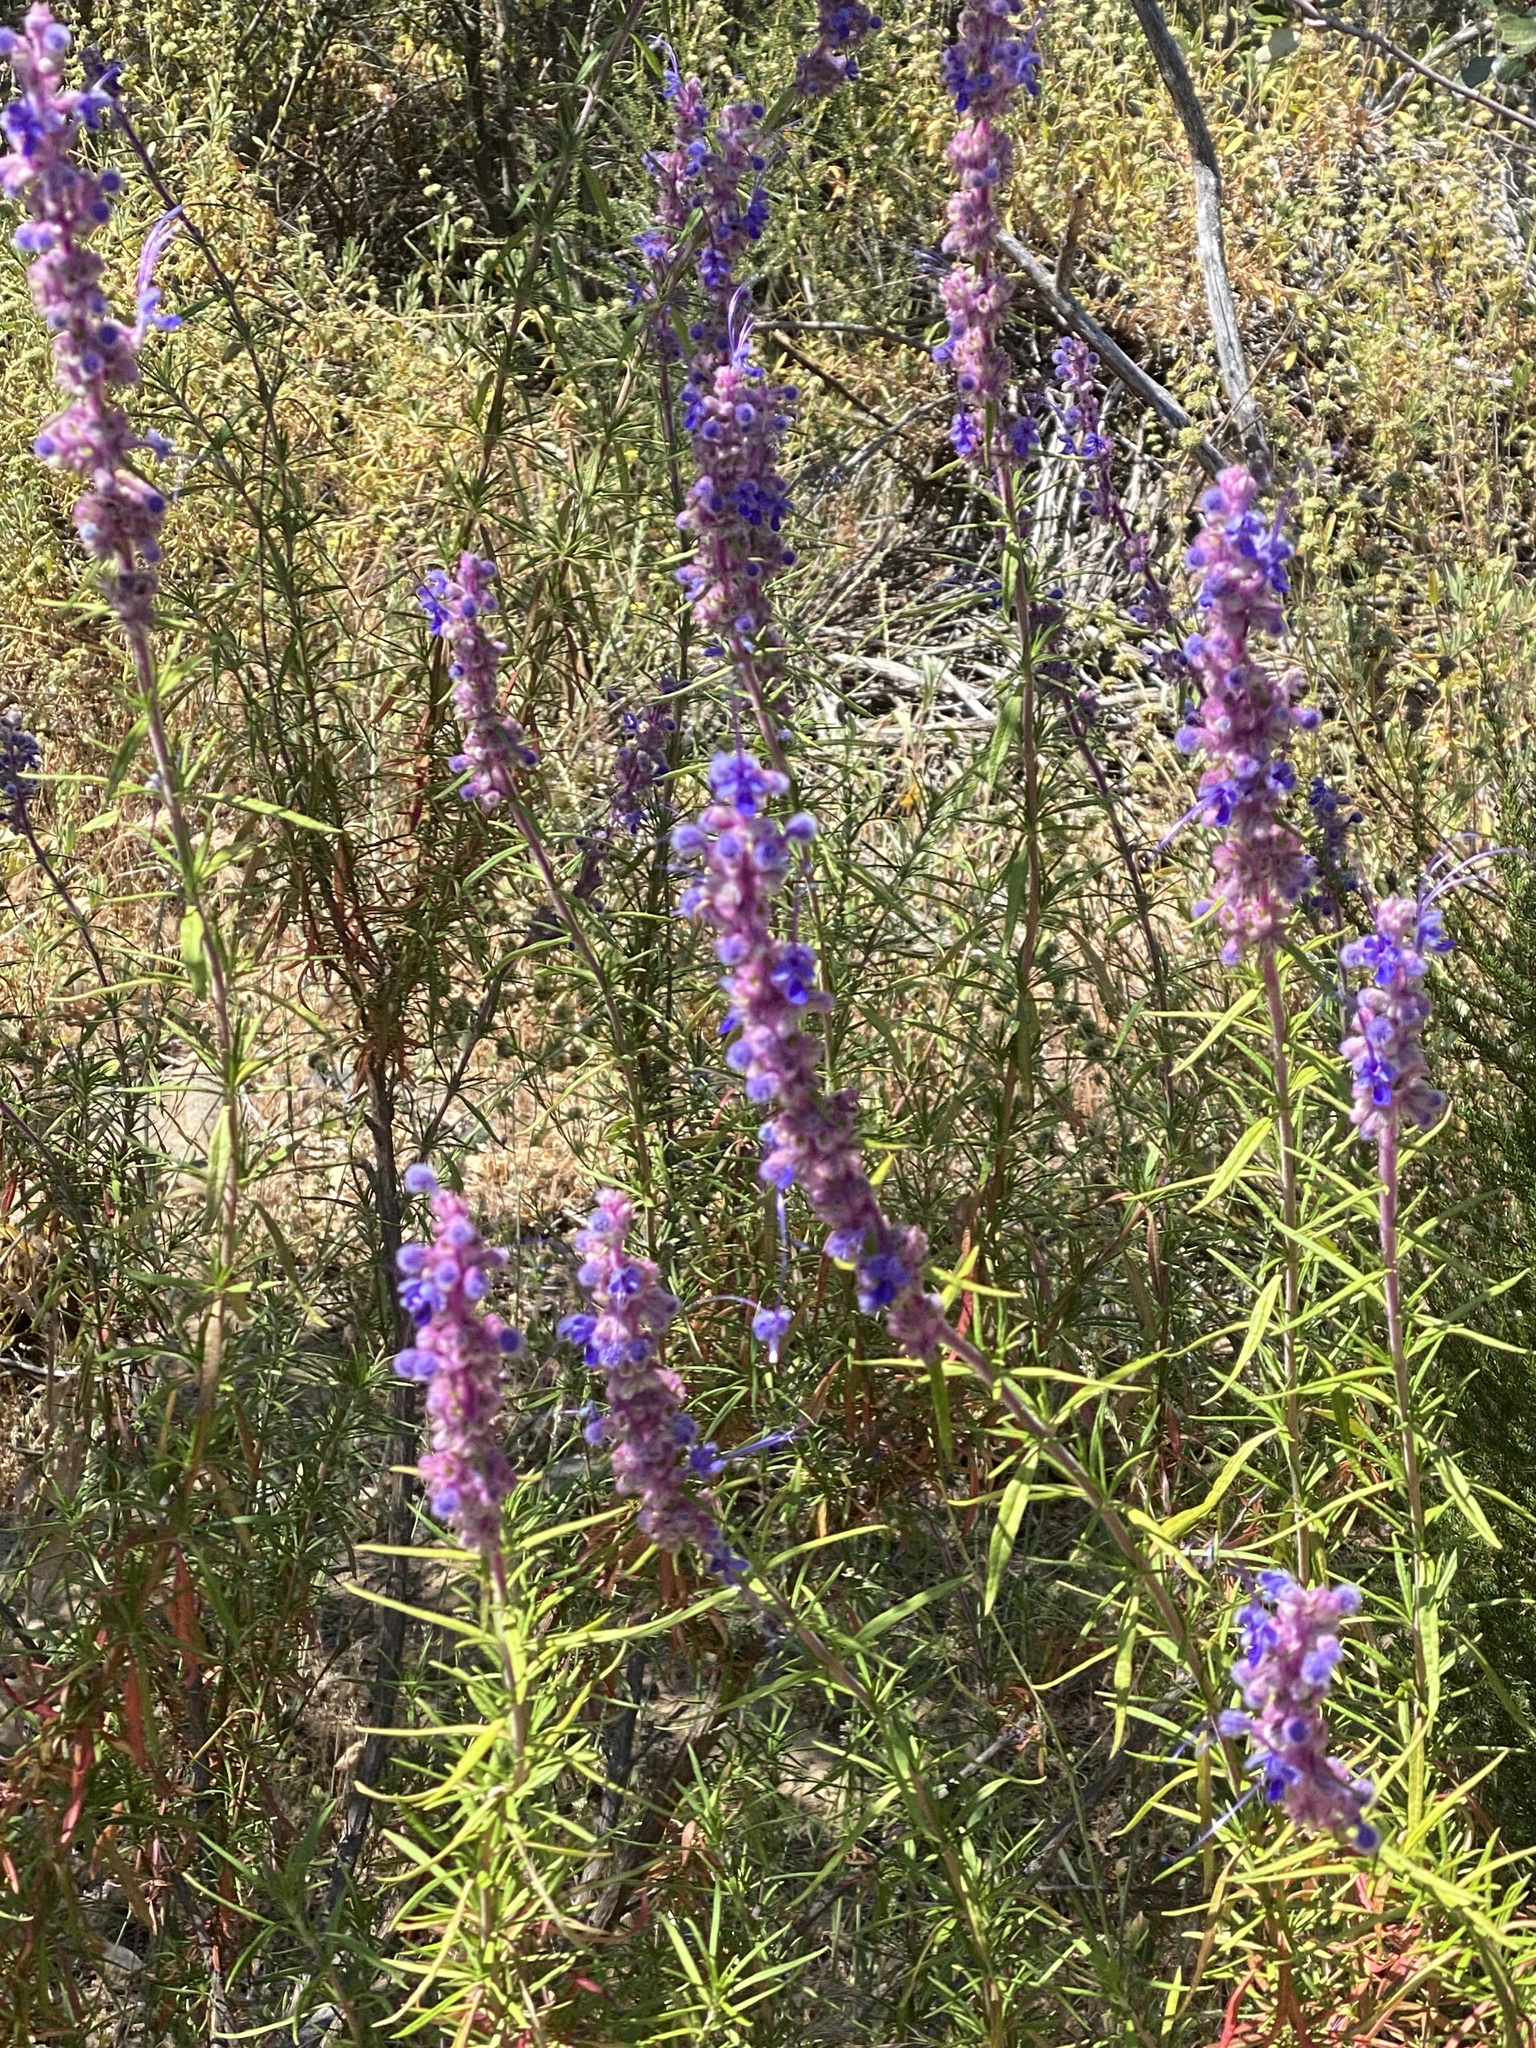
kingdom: Plantae
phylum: Tracheophyta
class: Magnoliopsida
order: Lamiales
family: Lamiaceae
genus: Trichostema
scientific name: Trichostema lanatum
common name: Woolly bluecurls
